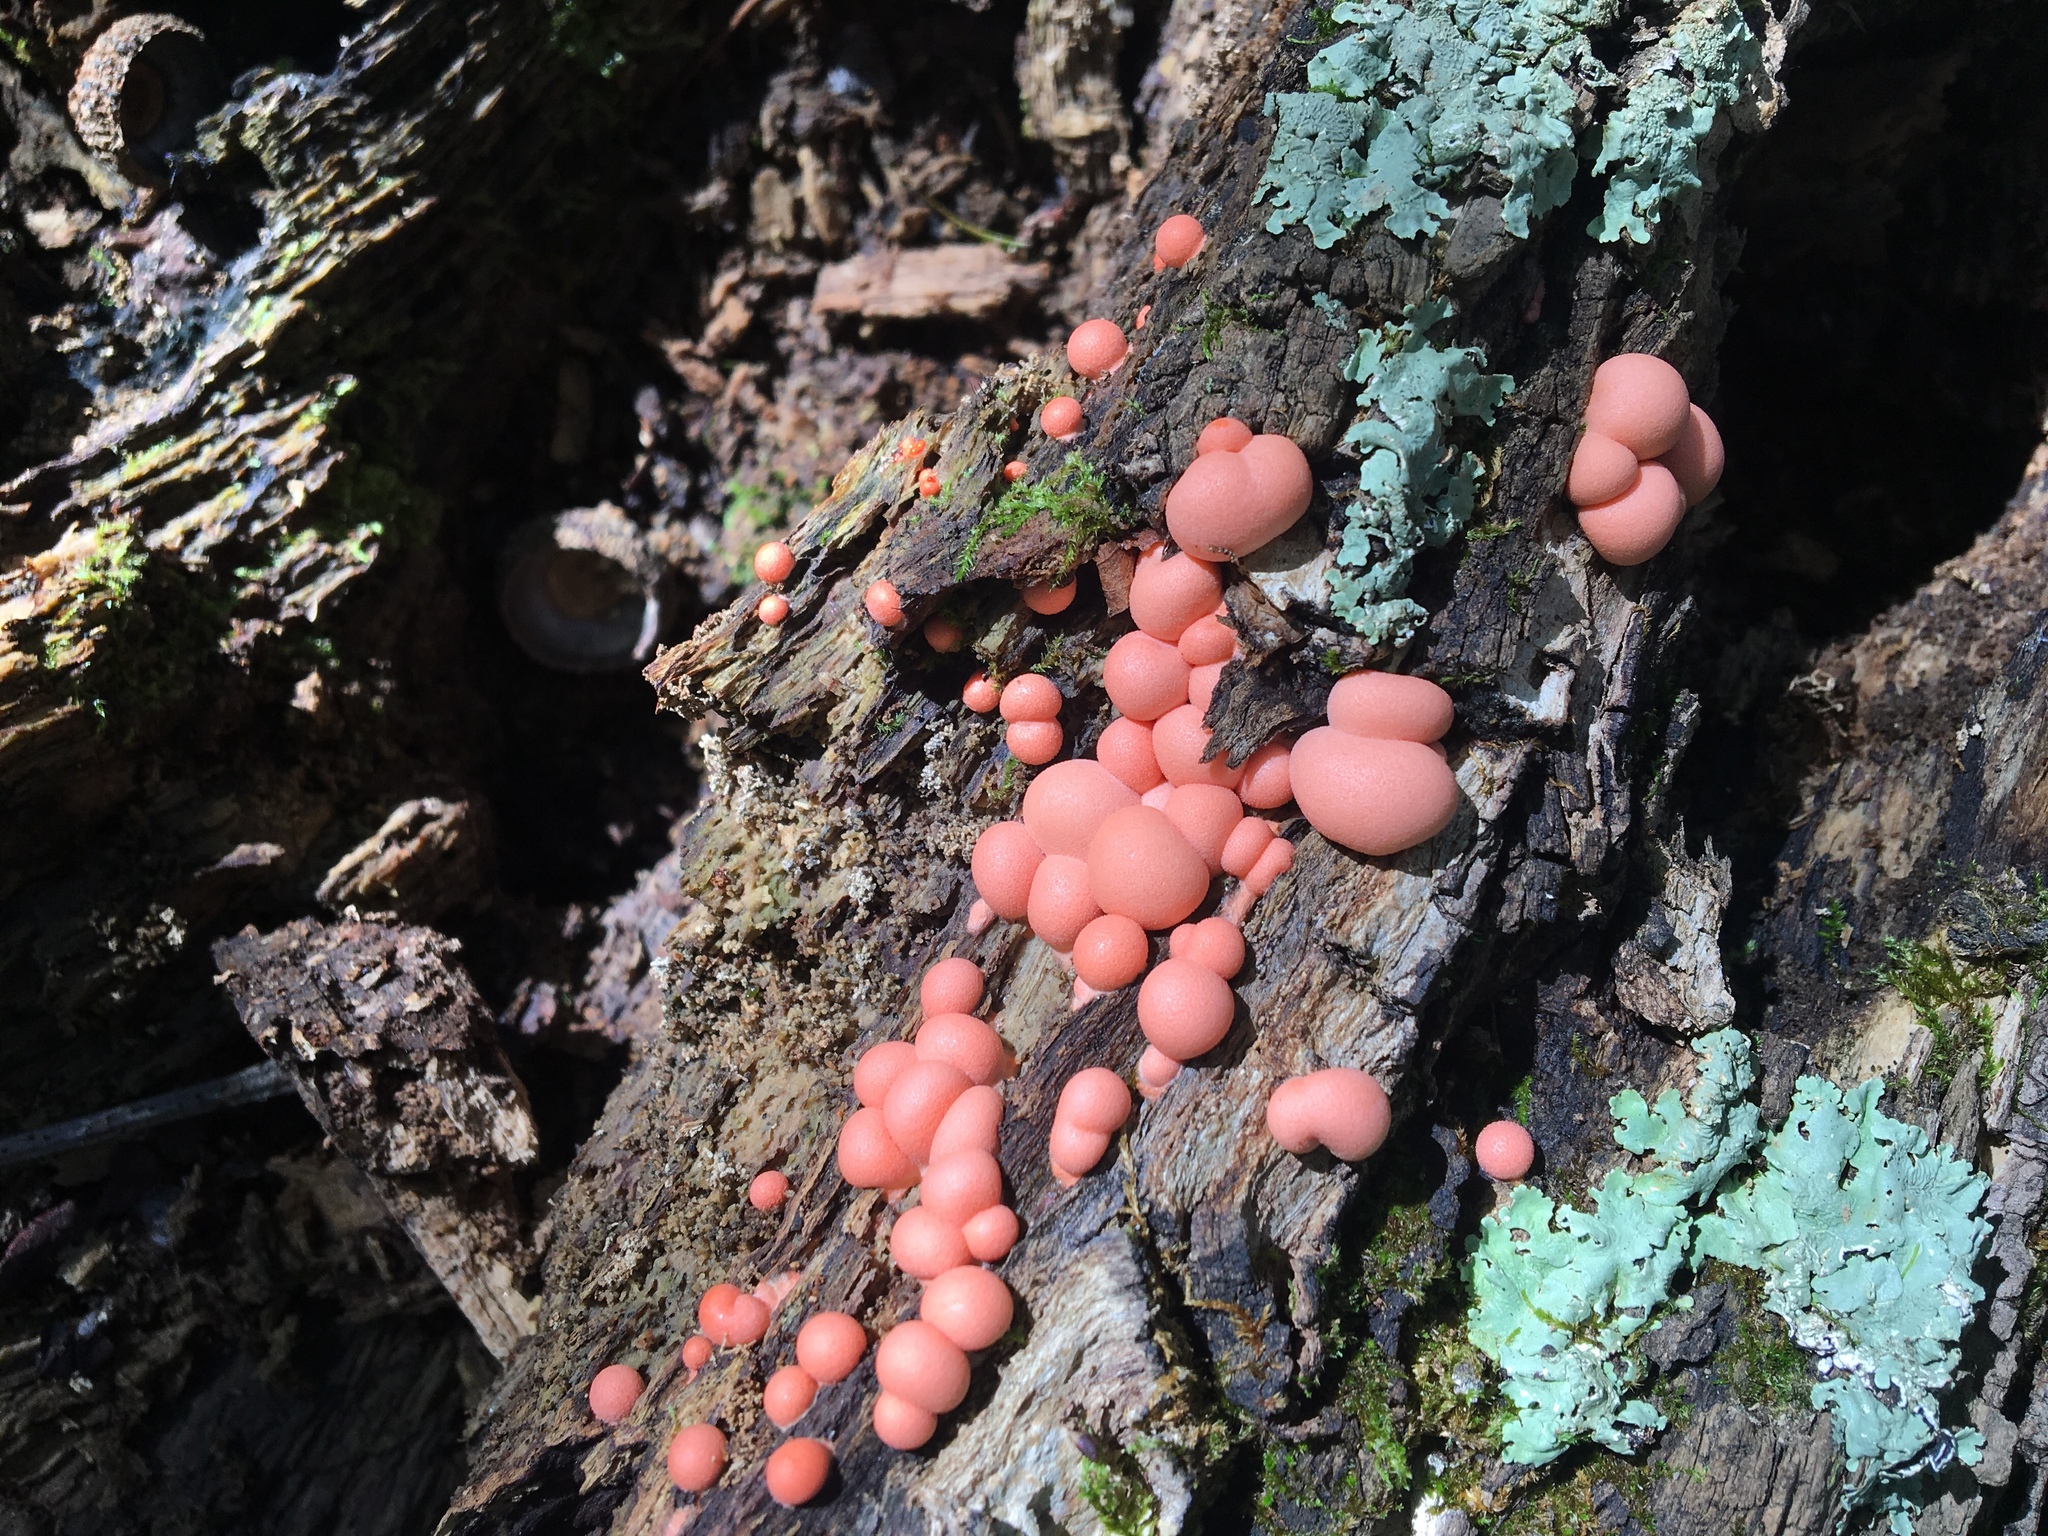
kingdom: Protozoa
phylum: Mycetozoa
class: Myxomycetes
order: Cribrariales
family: Tubiferaceae
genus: Lycogala
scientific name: Lycogala epidendrum
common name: Wolf's milk
